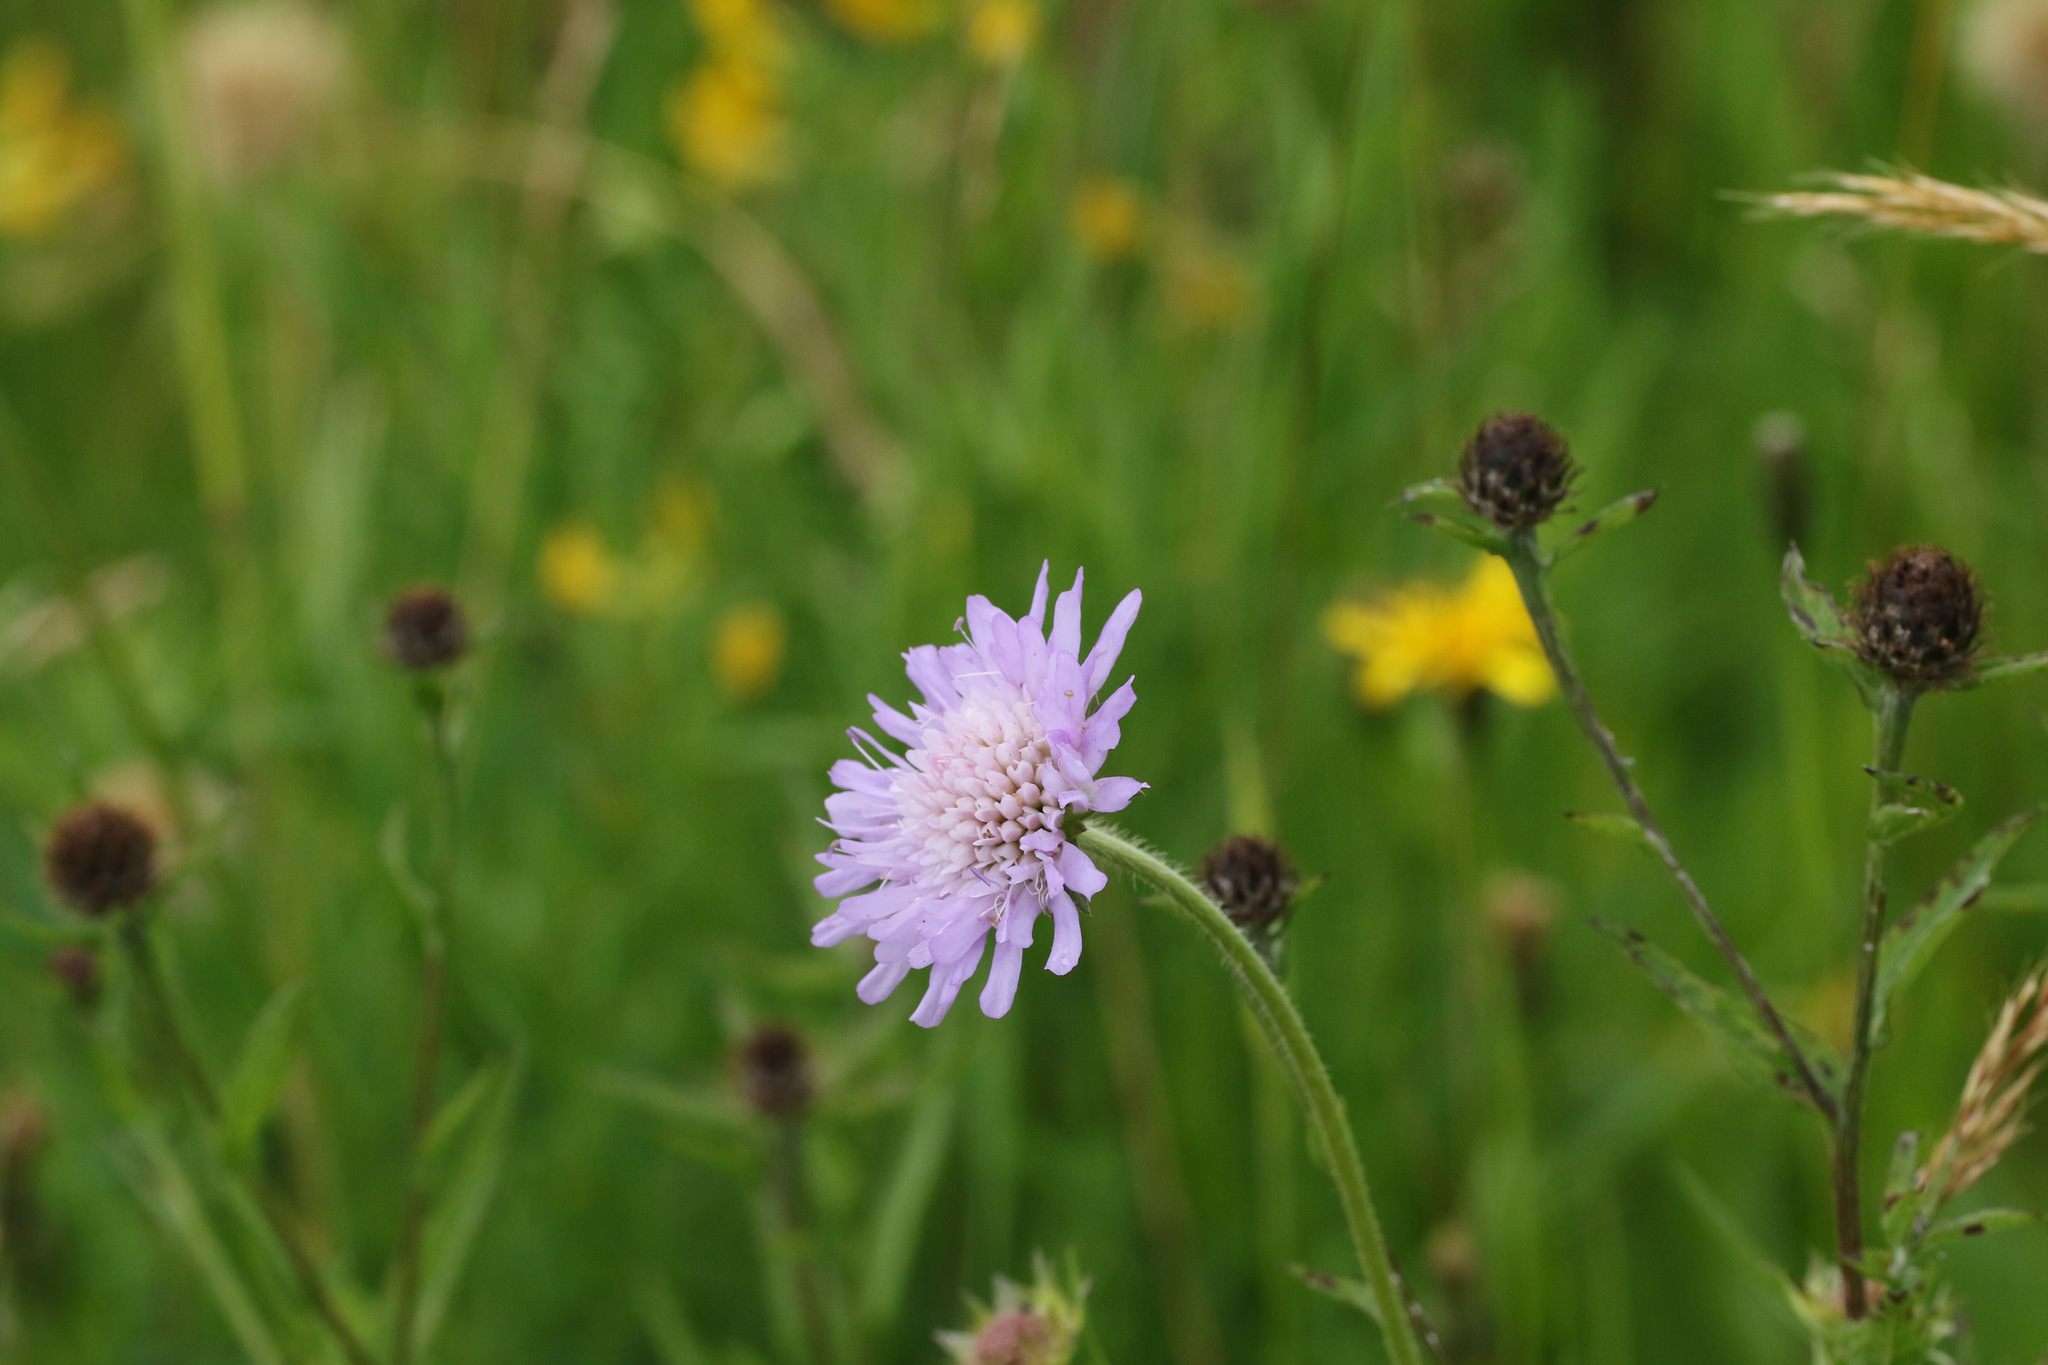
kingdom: Plantae
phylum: Tracheophyta
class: Magnoliopsida
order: Dipsacales
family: Caprifoliaceae
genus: Knautia
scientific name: Knautia arvensis
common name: Field scabiosa
